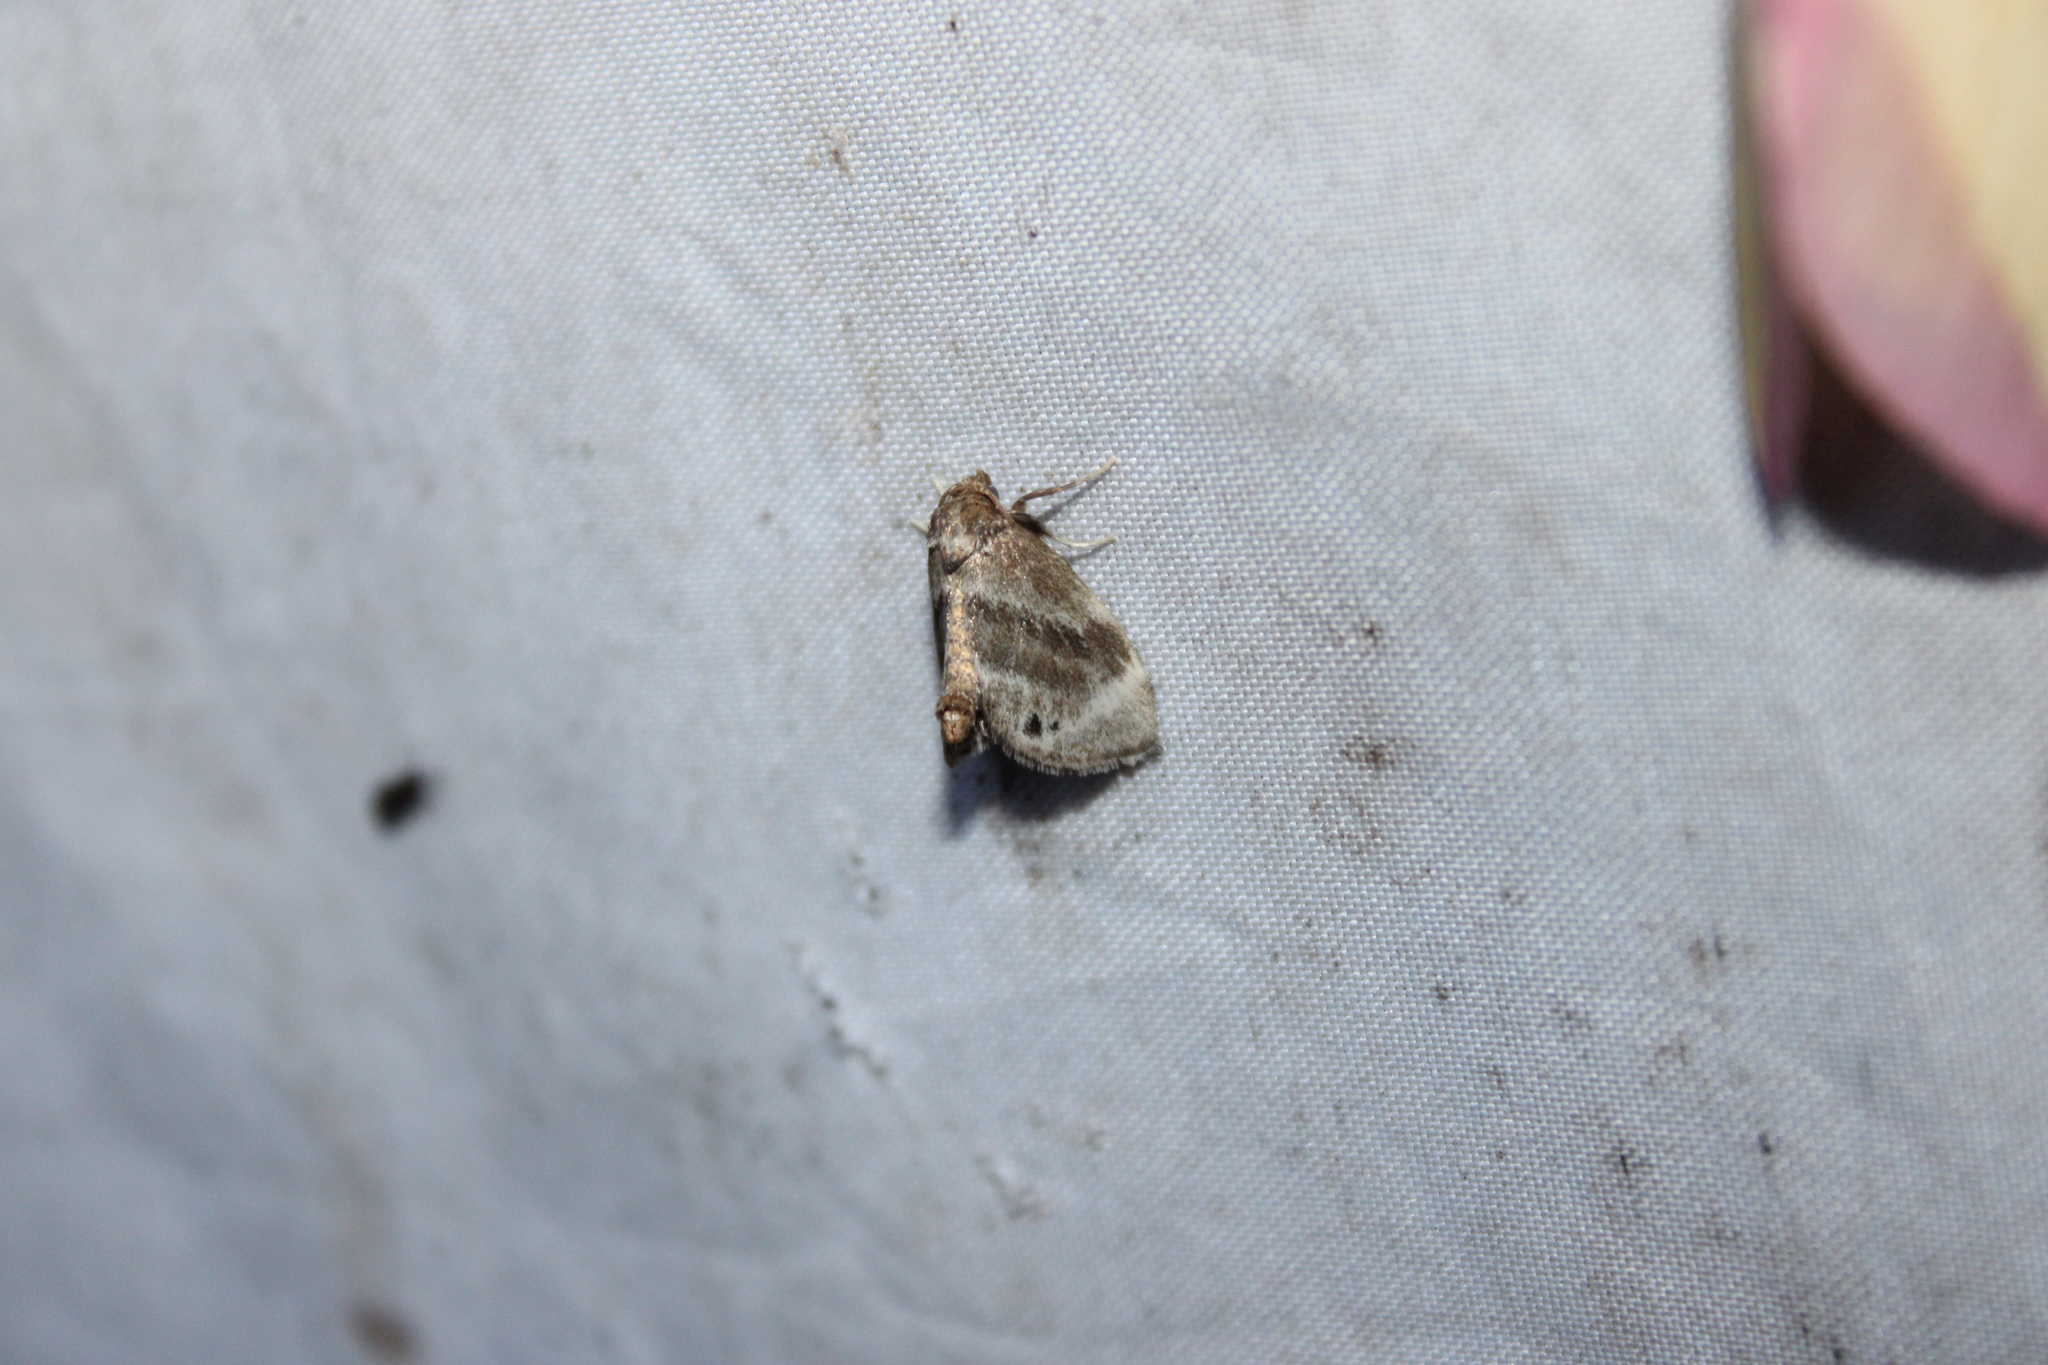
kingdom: Animalia
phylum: Arthropoda
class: Insecta
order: Lepidoptera
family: Limacodidae
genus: Packardia
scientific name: Packardia elegans
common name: Elegant tailed slug moth
